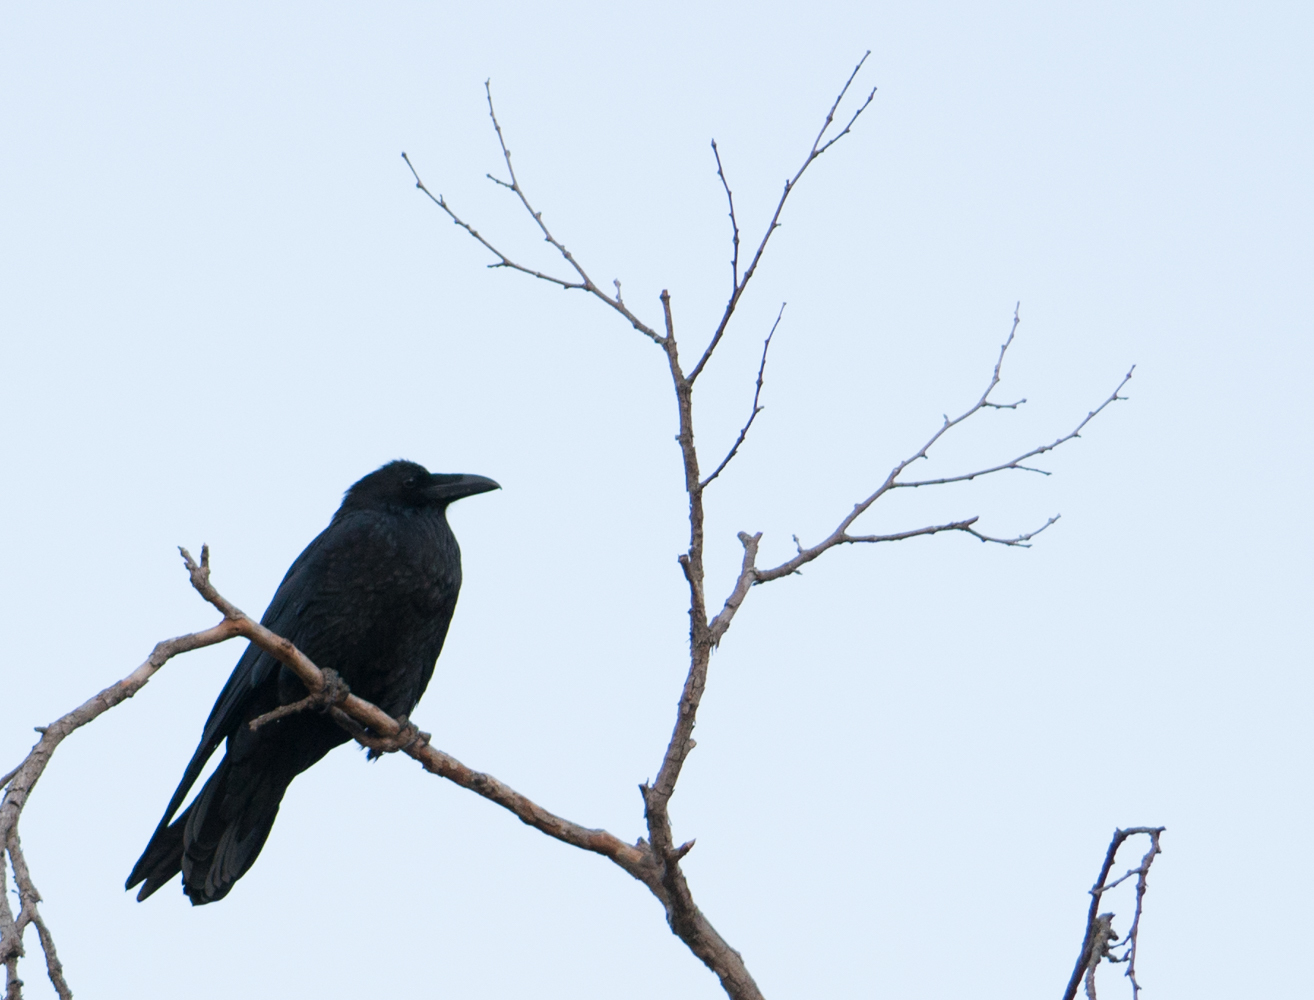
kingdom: Animalia
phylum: Chordata
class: Aves
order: Passeriformes
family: Corvidae
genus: Corvus
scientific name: Corvus corax
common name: Common raven
